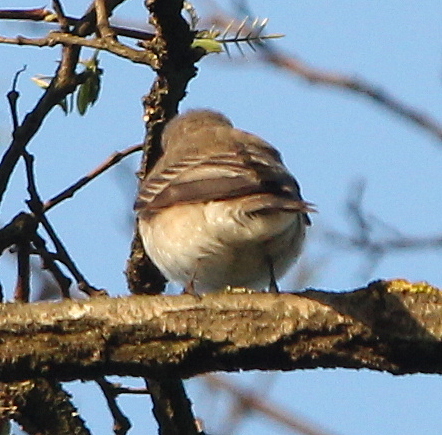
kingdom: Animalia
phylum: Chordata
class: Aves
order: Passeriformes
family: Muscicapidae
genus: Muscicapa
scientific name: Muscicapa striata
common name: Spotted flycatcher
